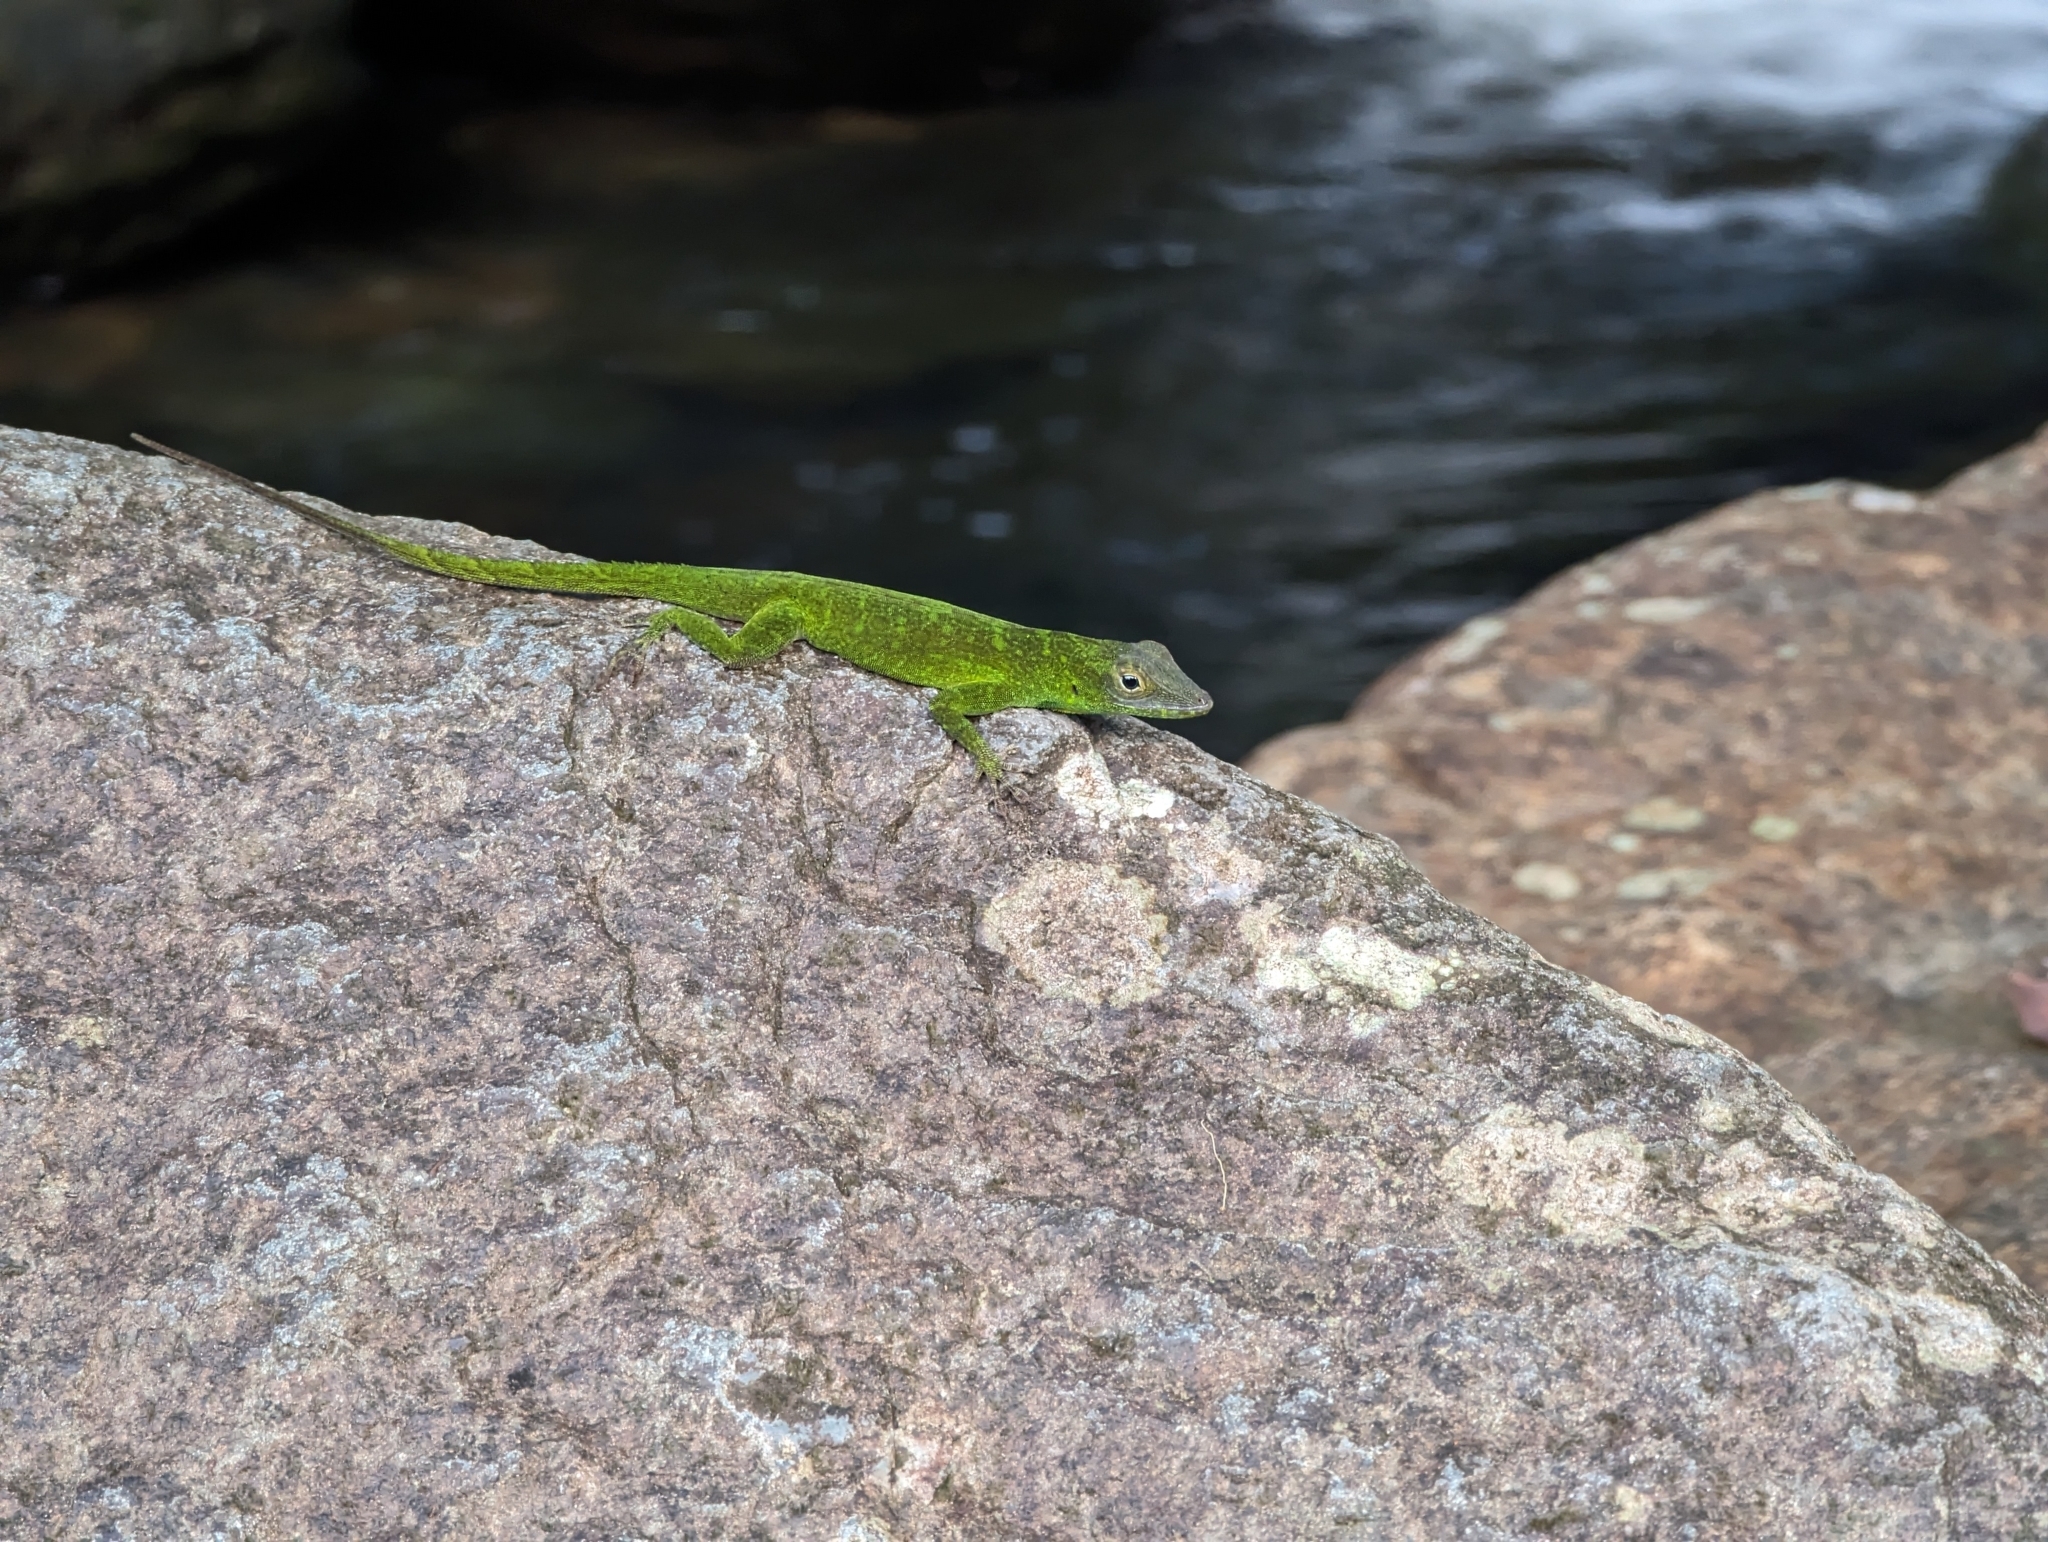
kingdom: Animalia
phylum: Chordata
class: Squamata
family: Dactyloidae
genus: Anolis
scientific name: Anolis evermanni
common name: Emerald anole
